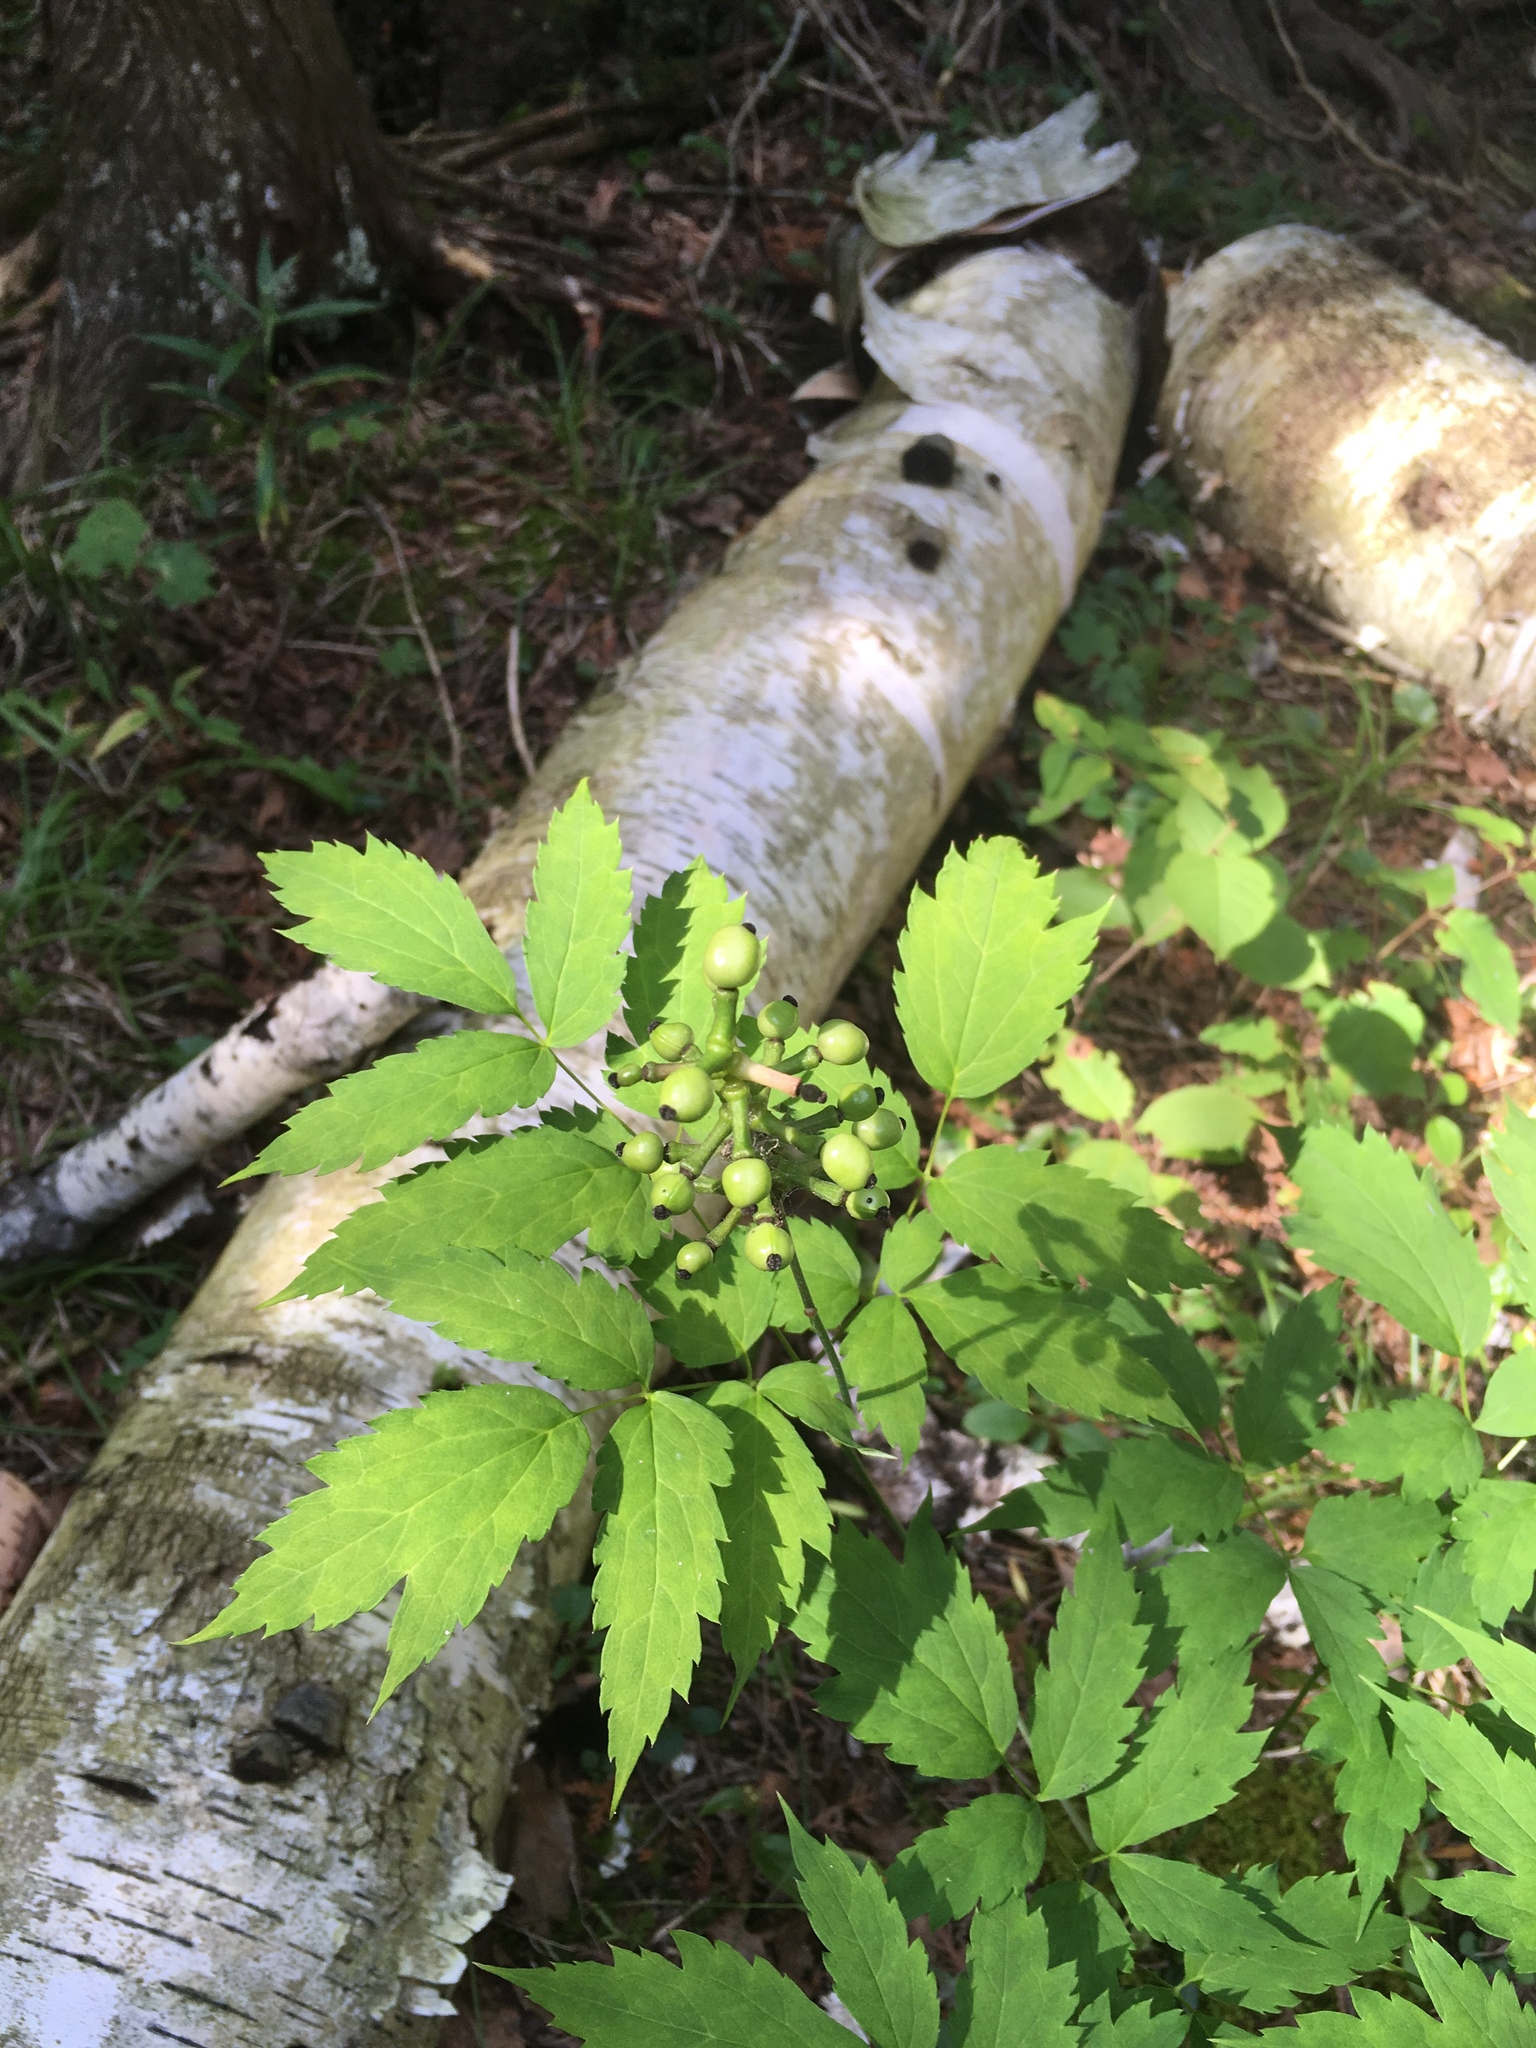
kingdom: Plantae
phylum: Tracheophyta
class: Magnoliopsida
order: Ranunculales
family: Ranunculaceae
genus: Actaea
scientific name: Actaea pachypoda
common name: Doll's-eyes
